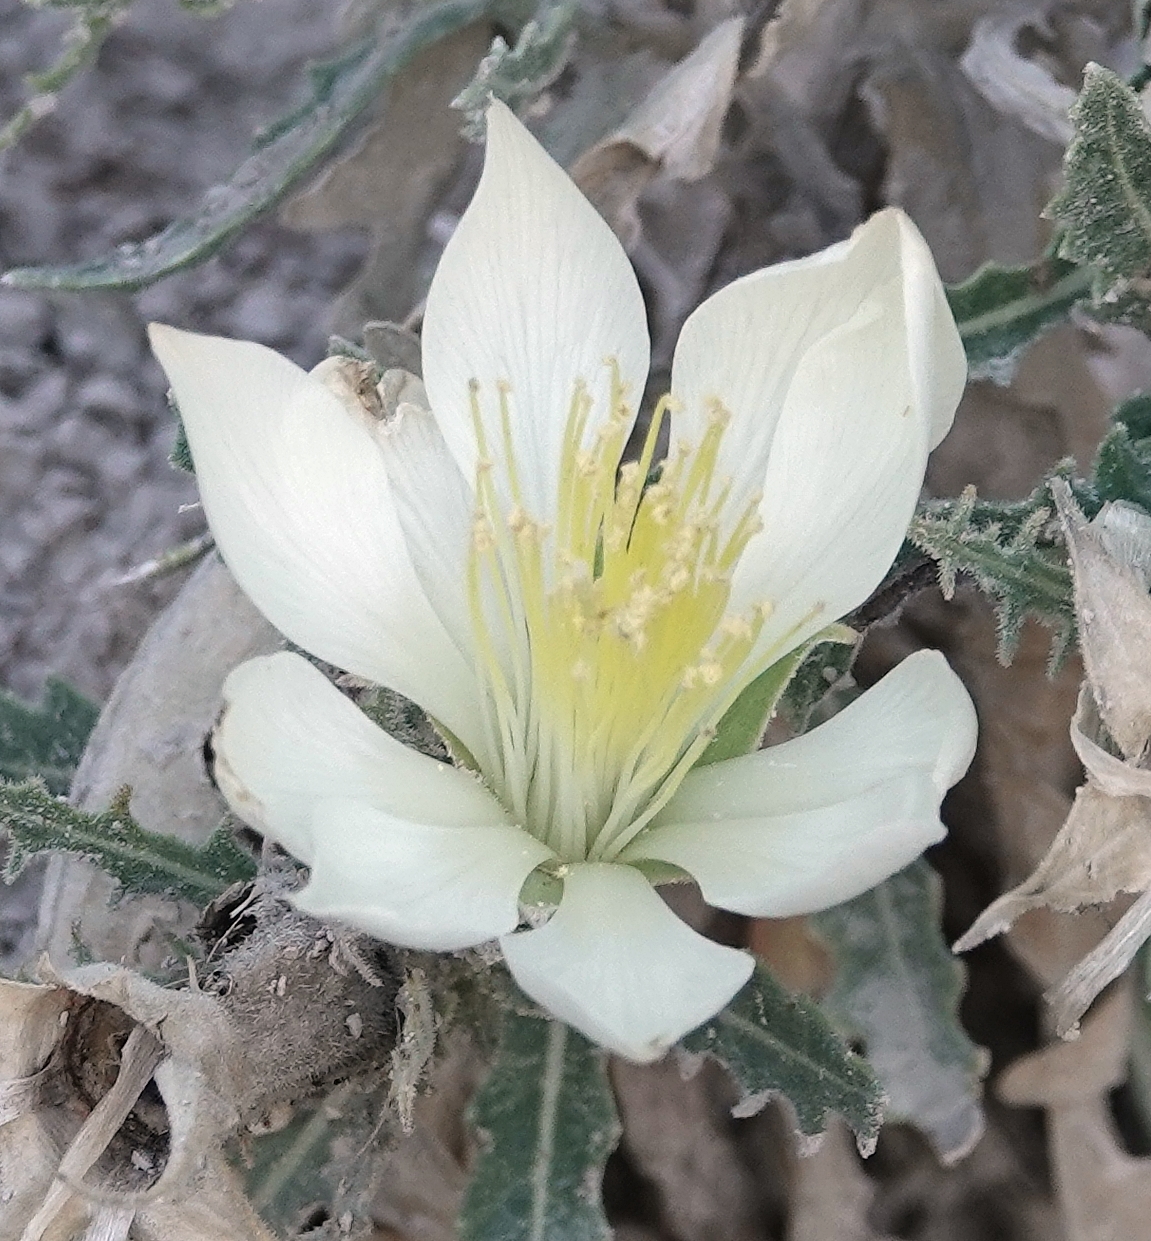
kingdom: Plantae
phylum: Tracheophyta
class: Magnoliopsida
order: Cornales
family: Loasaceae
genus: Mentzelia
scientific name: Mentzelia decapetala
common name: Gumbo-lily
